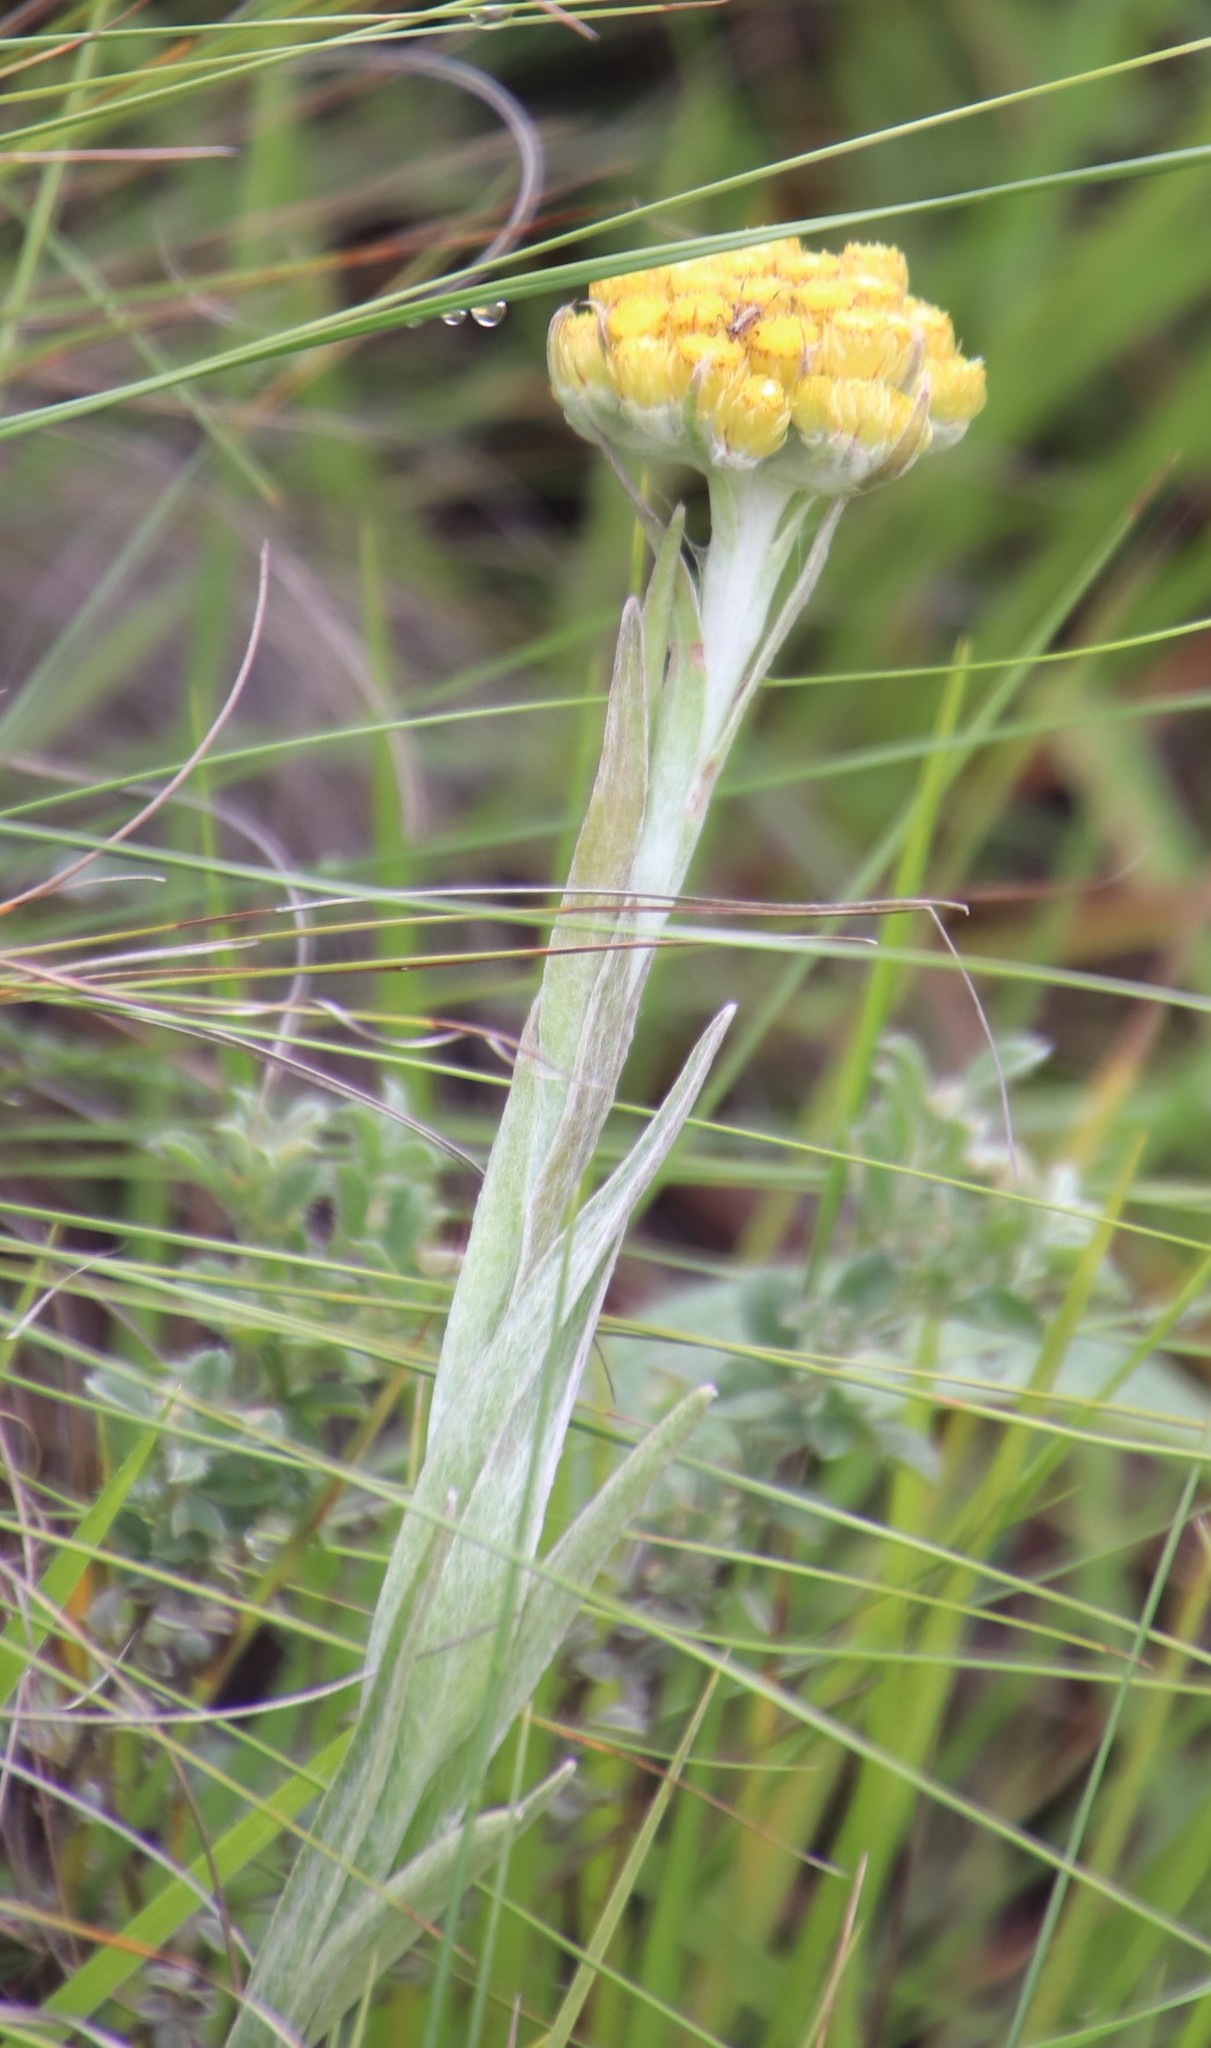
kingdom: Plantae
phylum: Tracheophyta
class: Magnoliopsida
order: Asterales
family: Asteraceae
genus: Helichrysum
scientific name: Helichrysum auriceps
